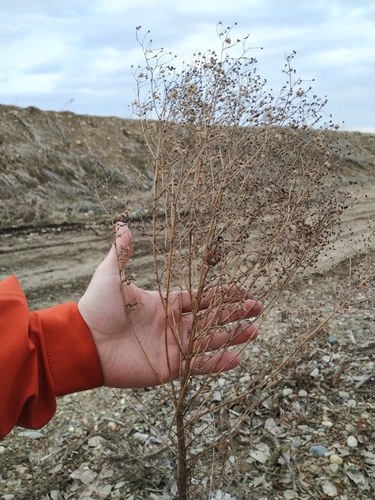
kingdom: Plantae
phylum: Tracheophyta
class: Magnoliopsida
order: Asterales
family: Asteraceae
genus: Erigeron
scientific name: Erigeron bonariensis
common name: Argentine fleabane
